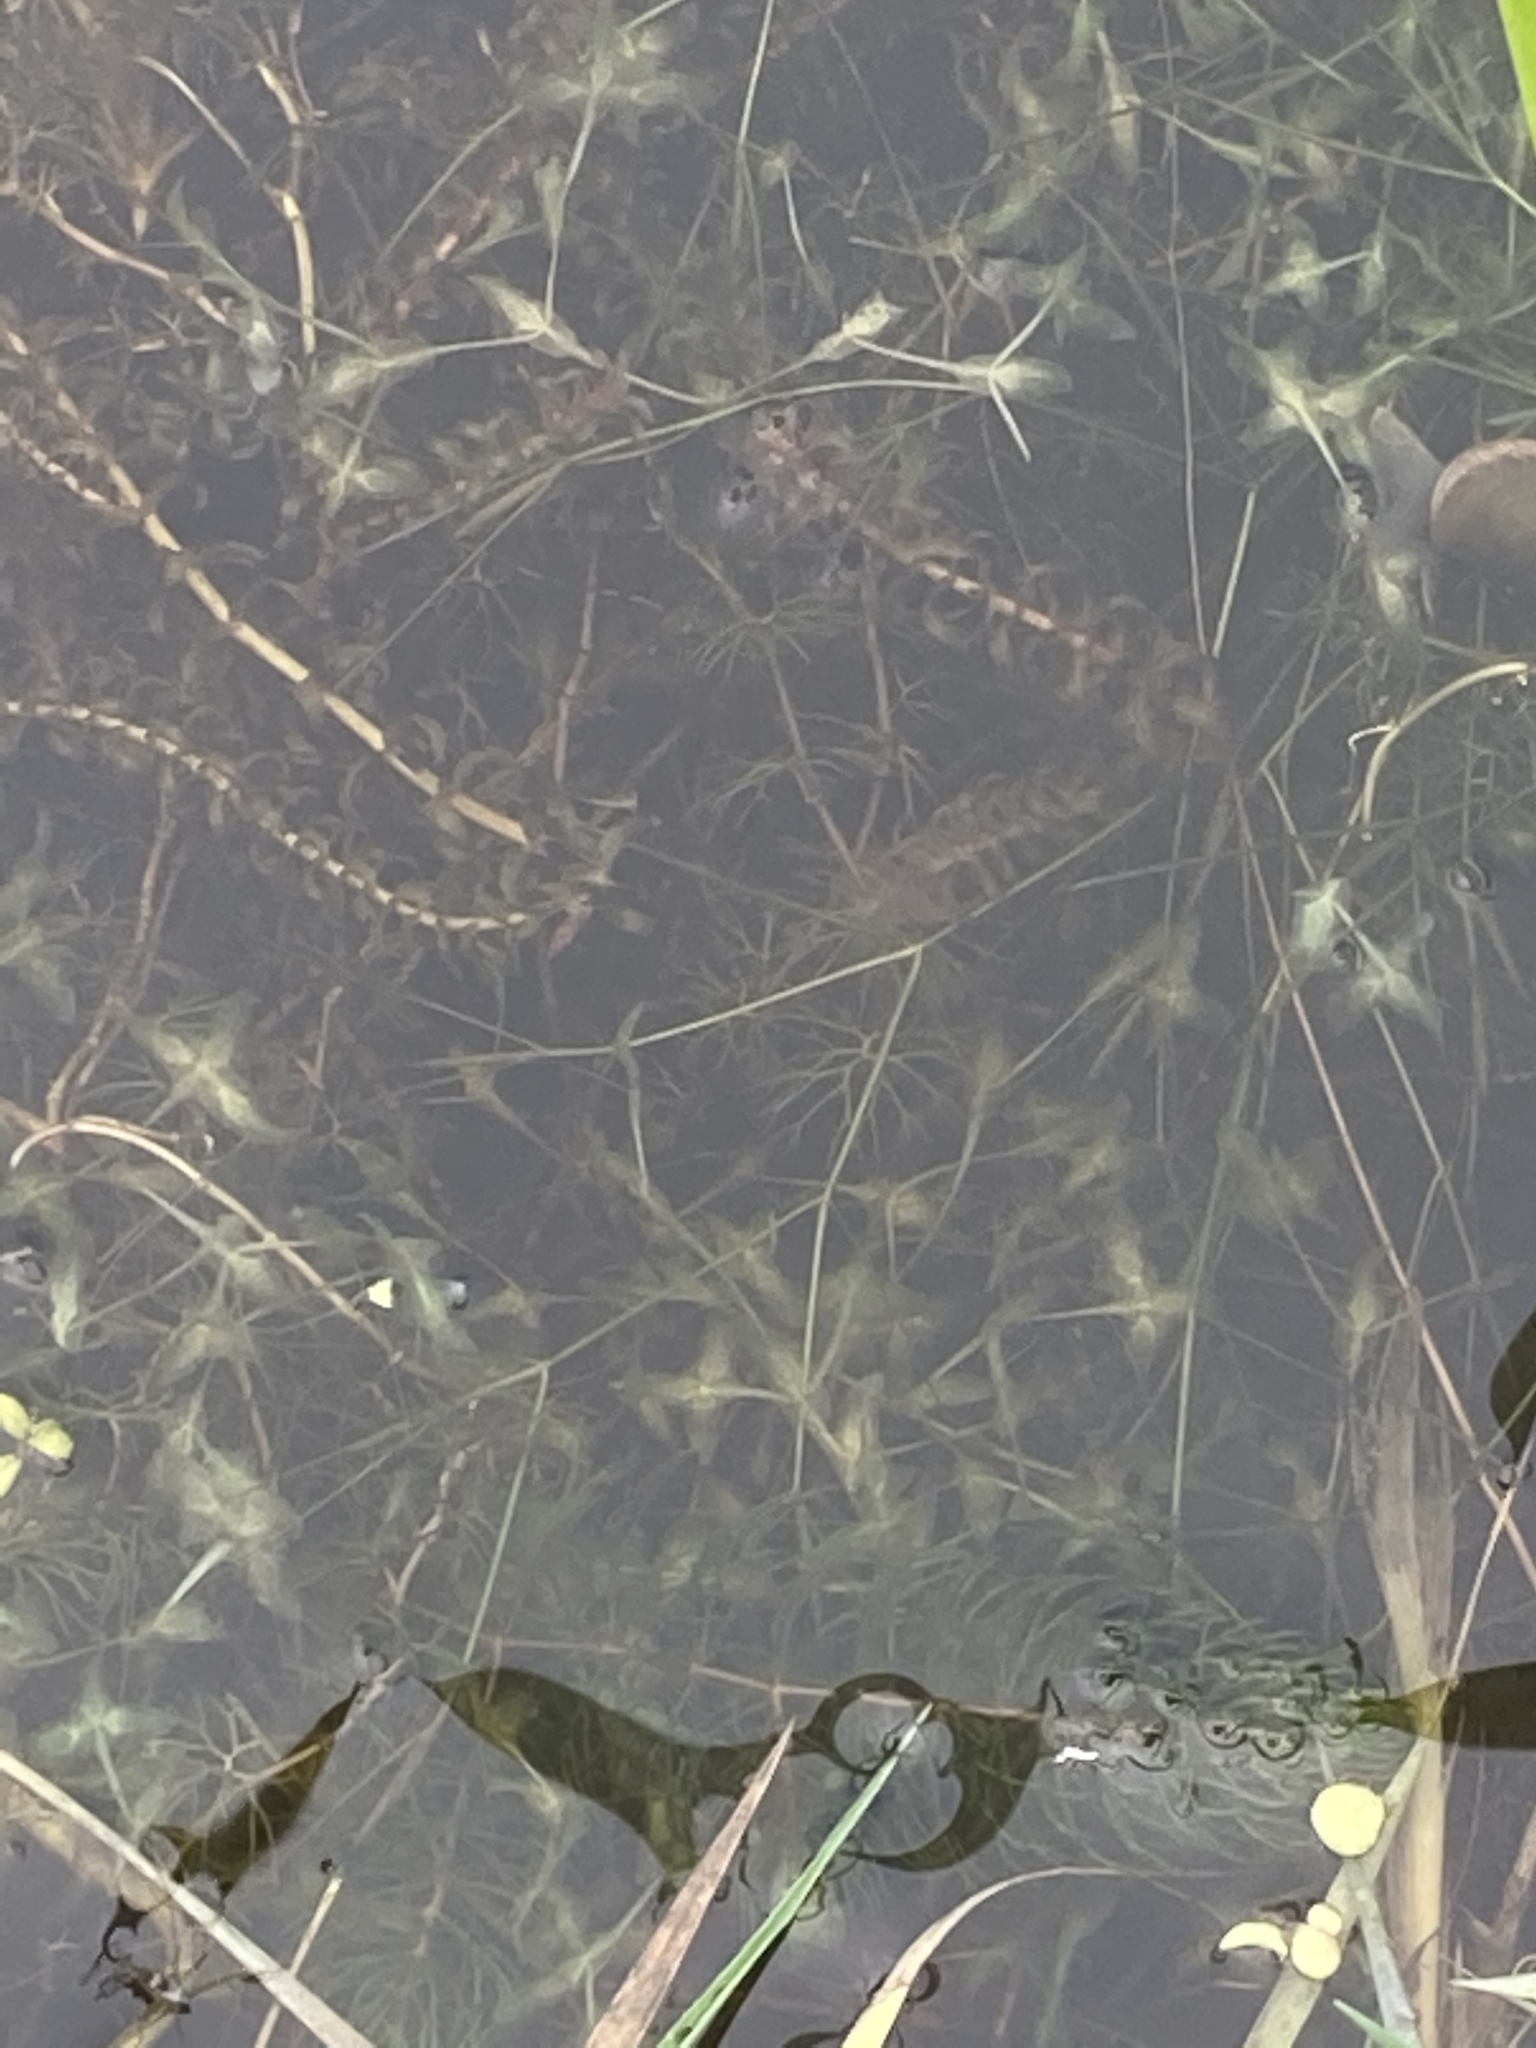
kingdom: Plantae
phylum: Tracheophyta
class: Liliopsida
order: Alismatales
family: Araceae
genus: Lemna
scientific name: Lemna trisulca
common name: Ivy-leaved duckweed
